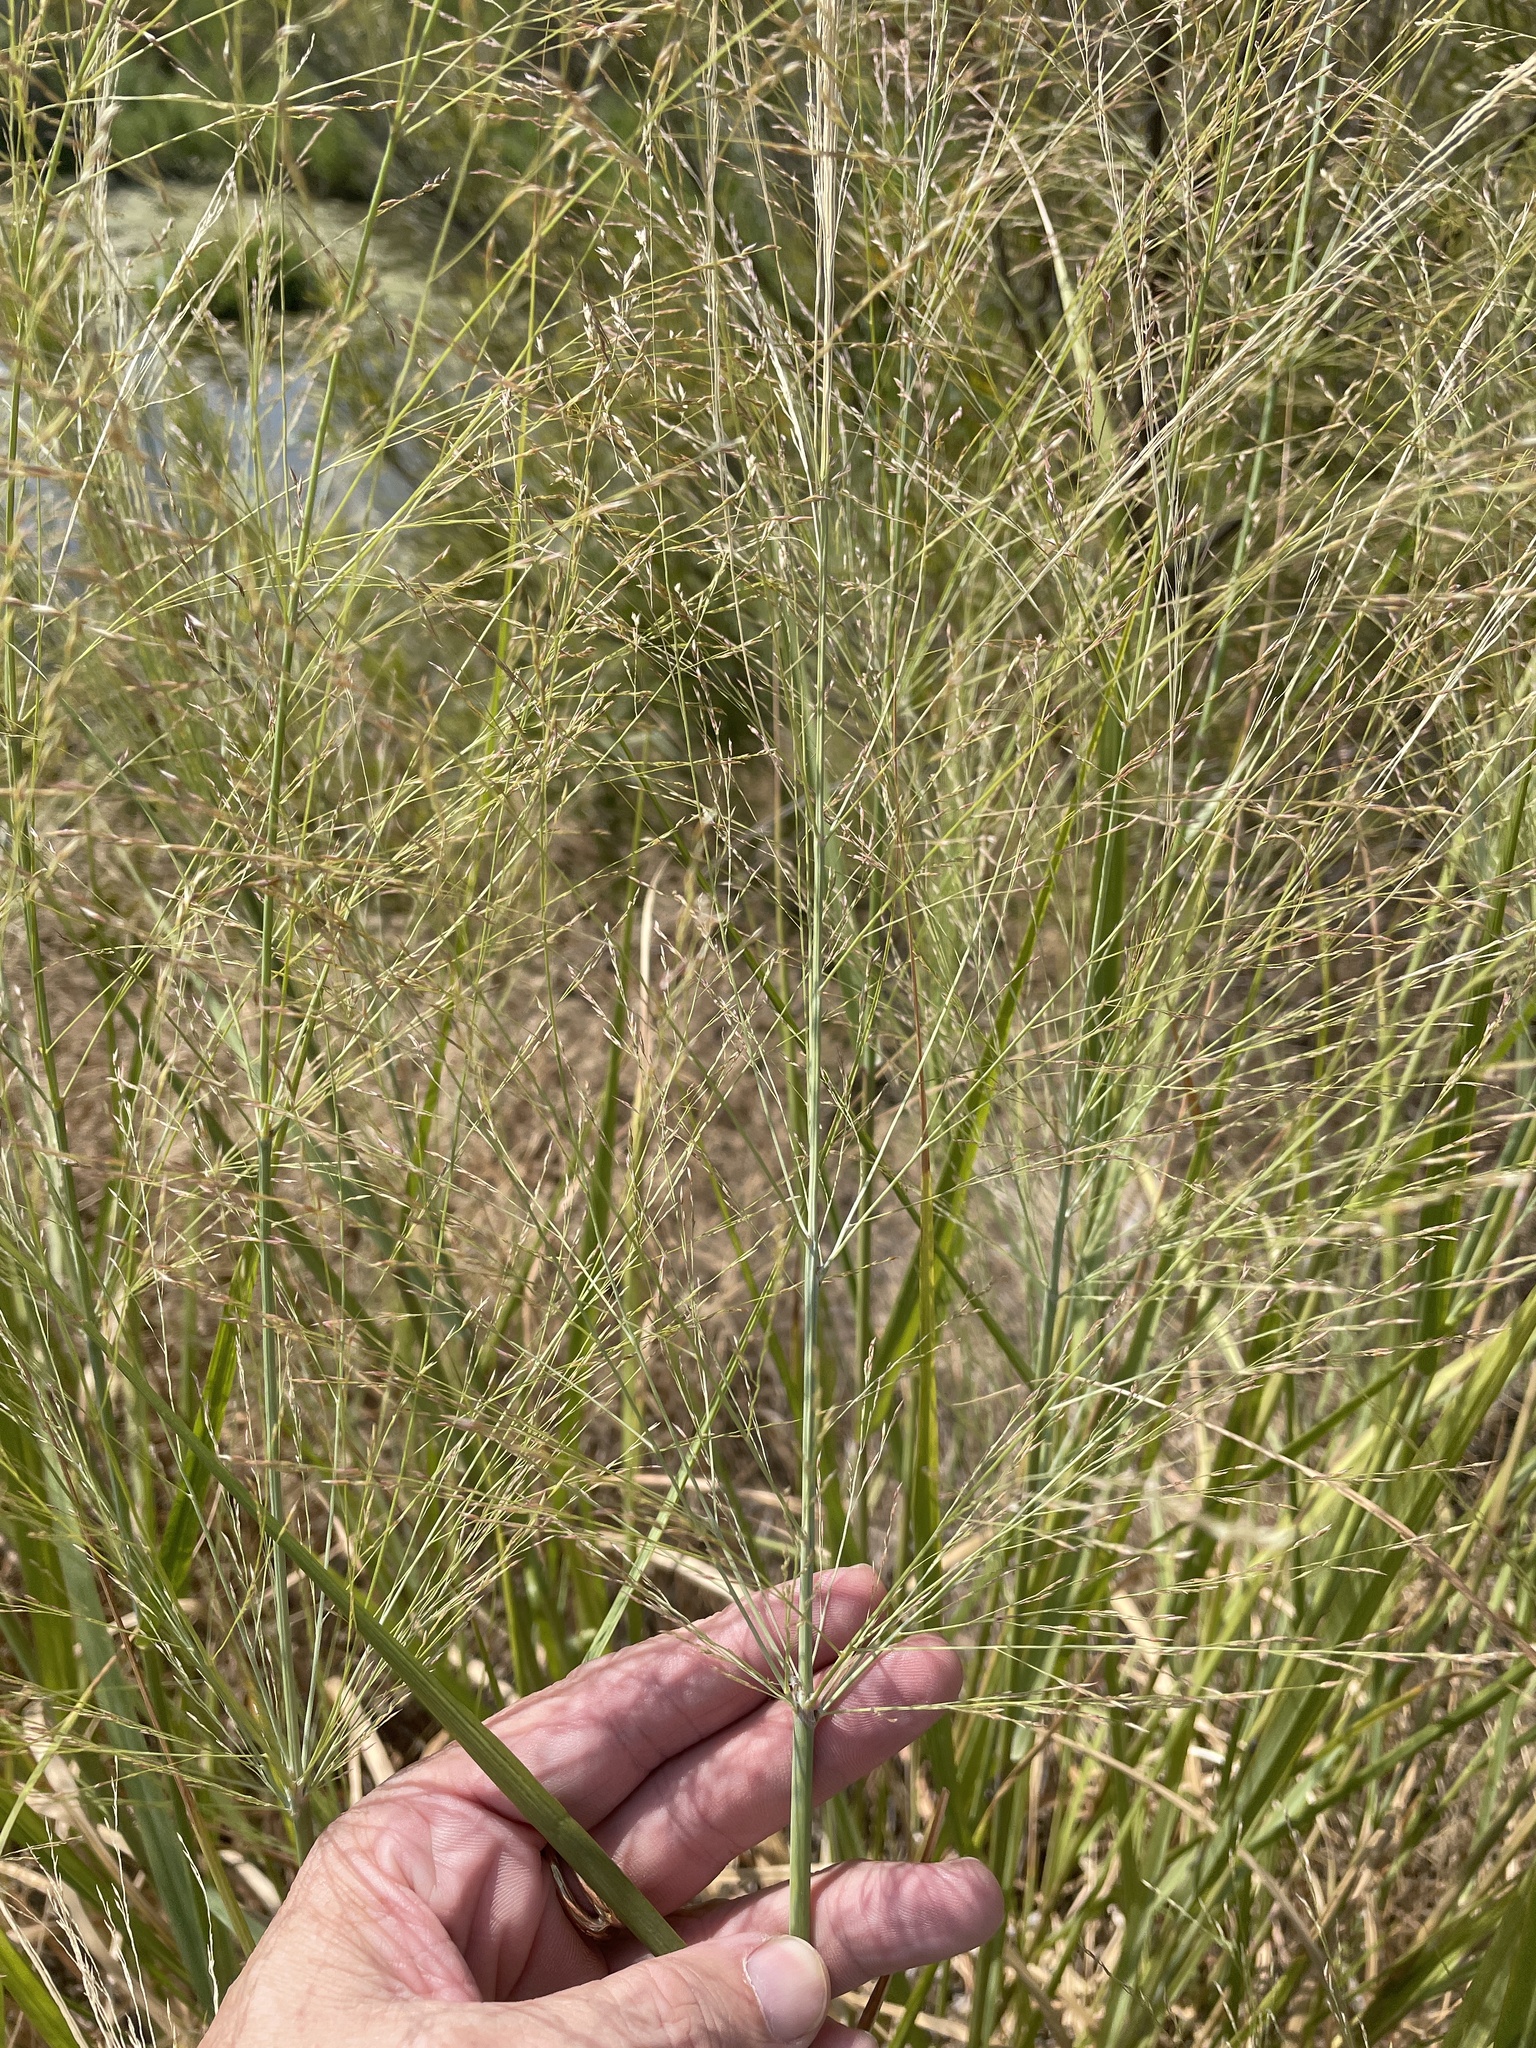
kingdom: Plantae
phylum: Tracheophyta
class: Liliopsida
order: Poales
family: Poaceae
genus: Panicum
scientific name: Panicum virgatum
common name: Switchgrass
